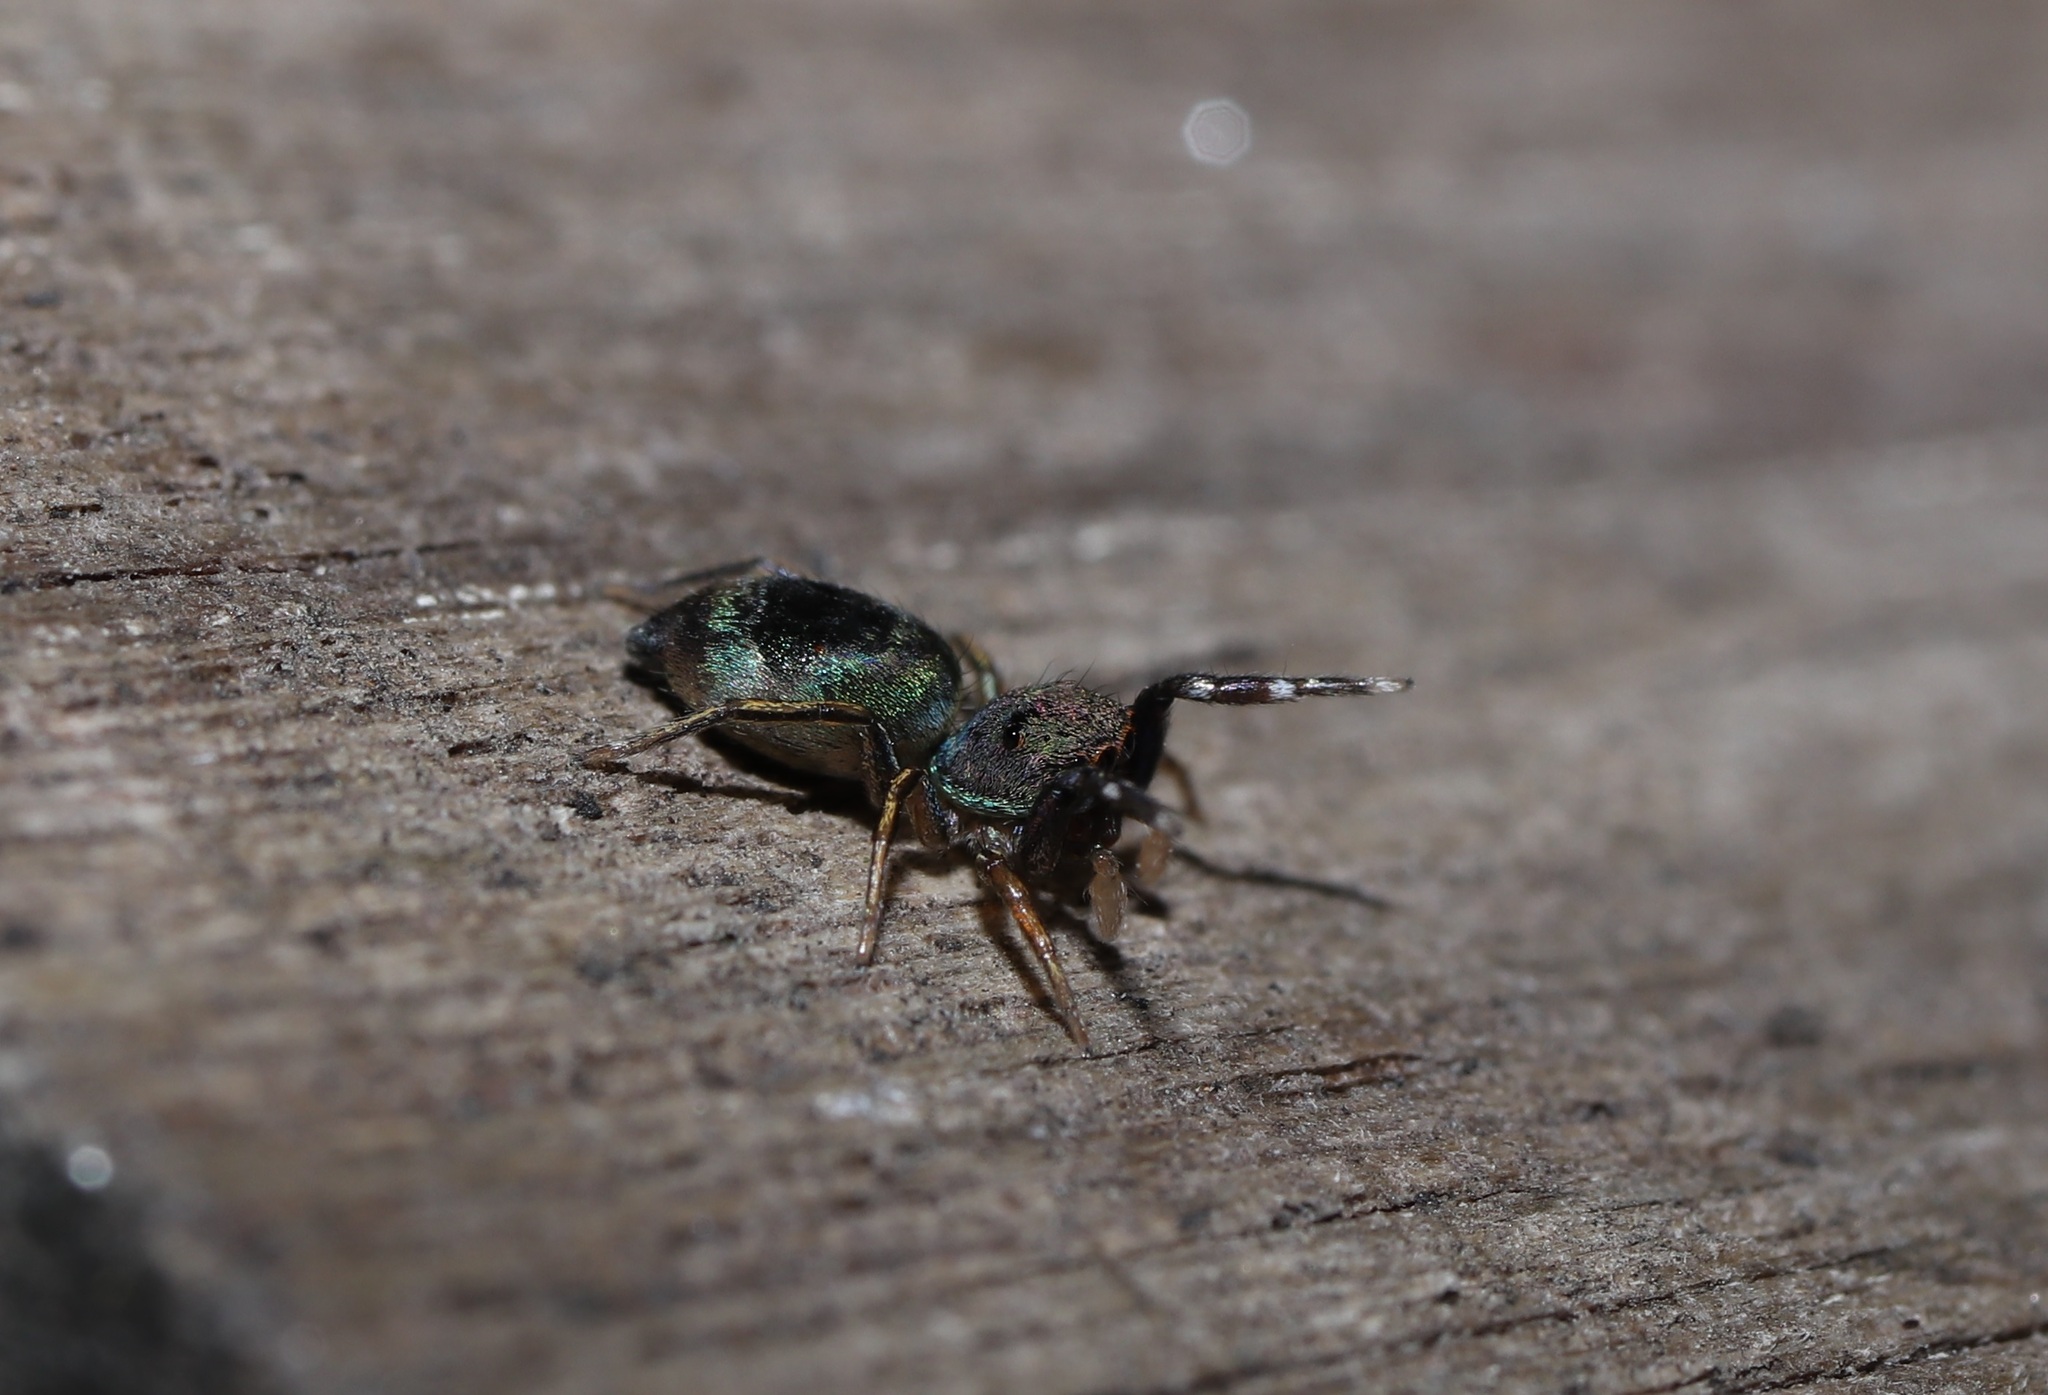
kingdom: Animalia
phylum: Arthropoda
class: Arachnida
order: Araneae
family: Salticidae
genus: Siler
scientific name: Siler cupreus
